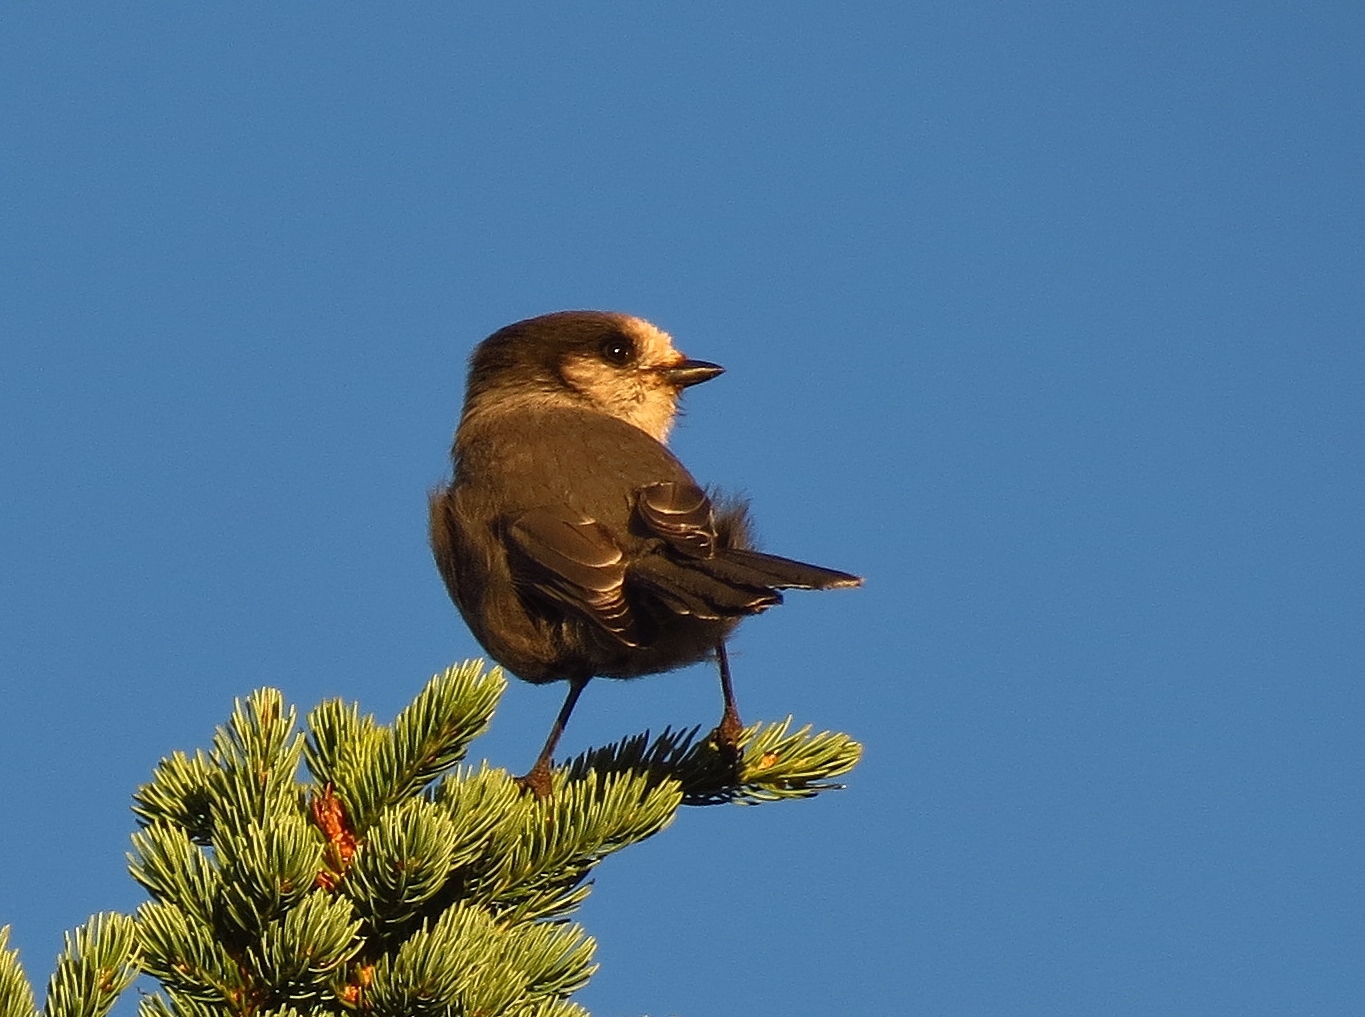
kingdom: Animalia
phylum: Chordata
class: Aves
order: Passeriformes
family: Corvidae
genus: Perisoreus
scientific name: Perisoreus canadensis
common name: Gray jay
